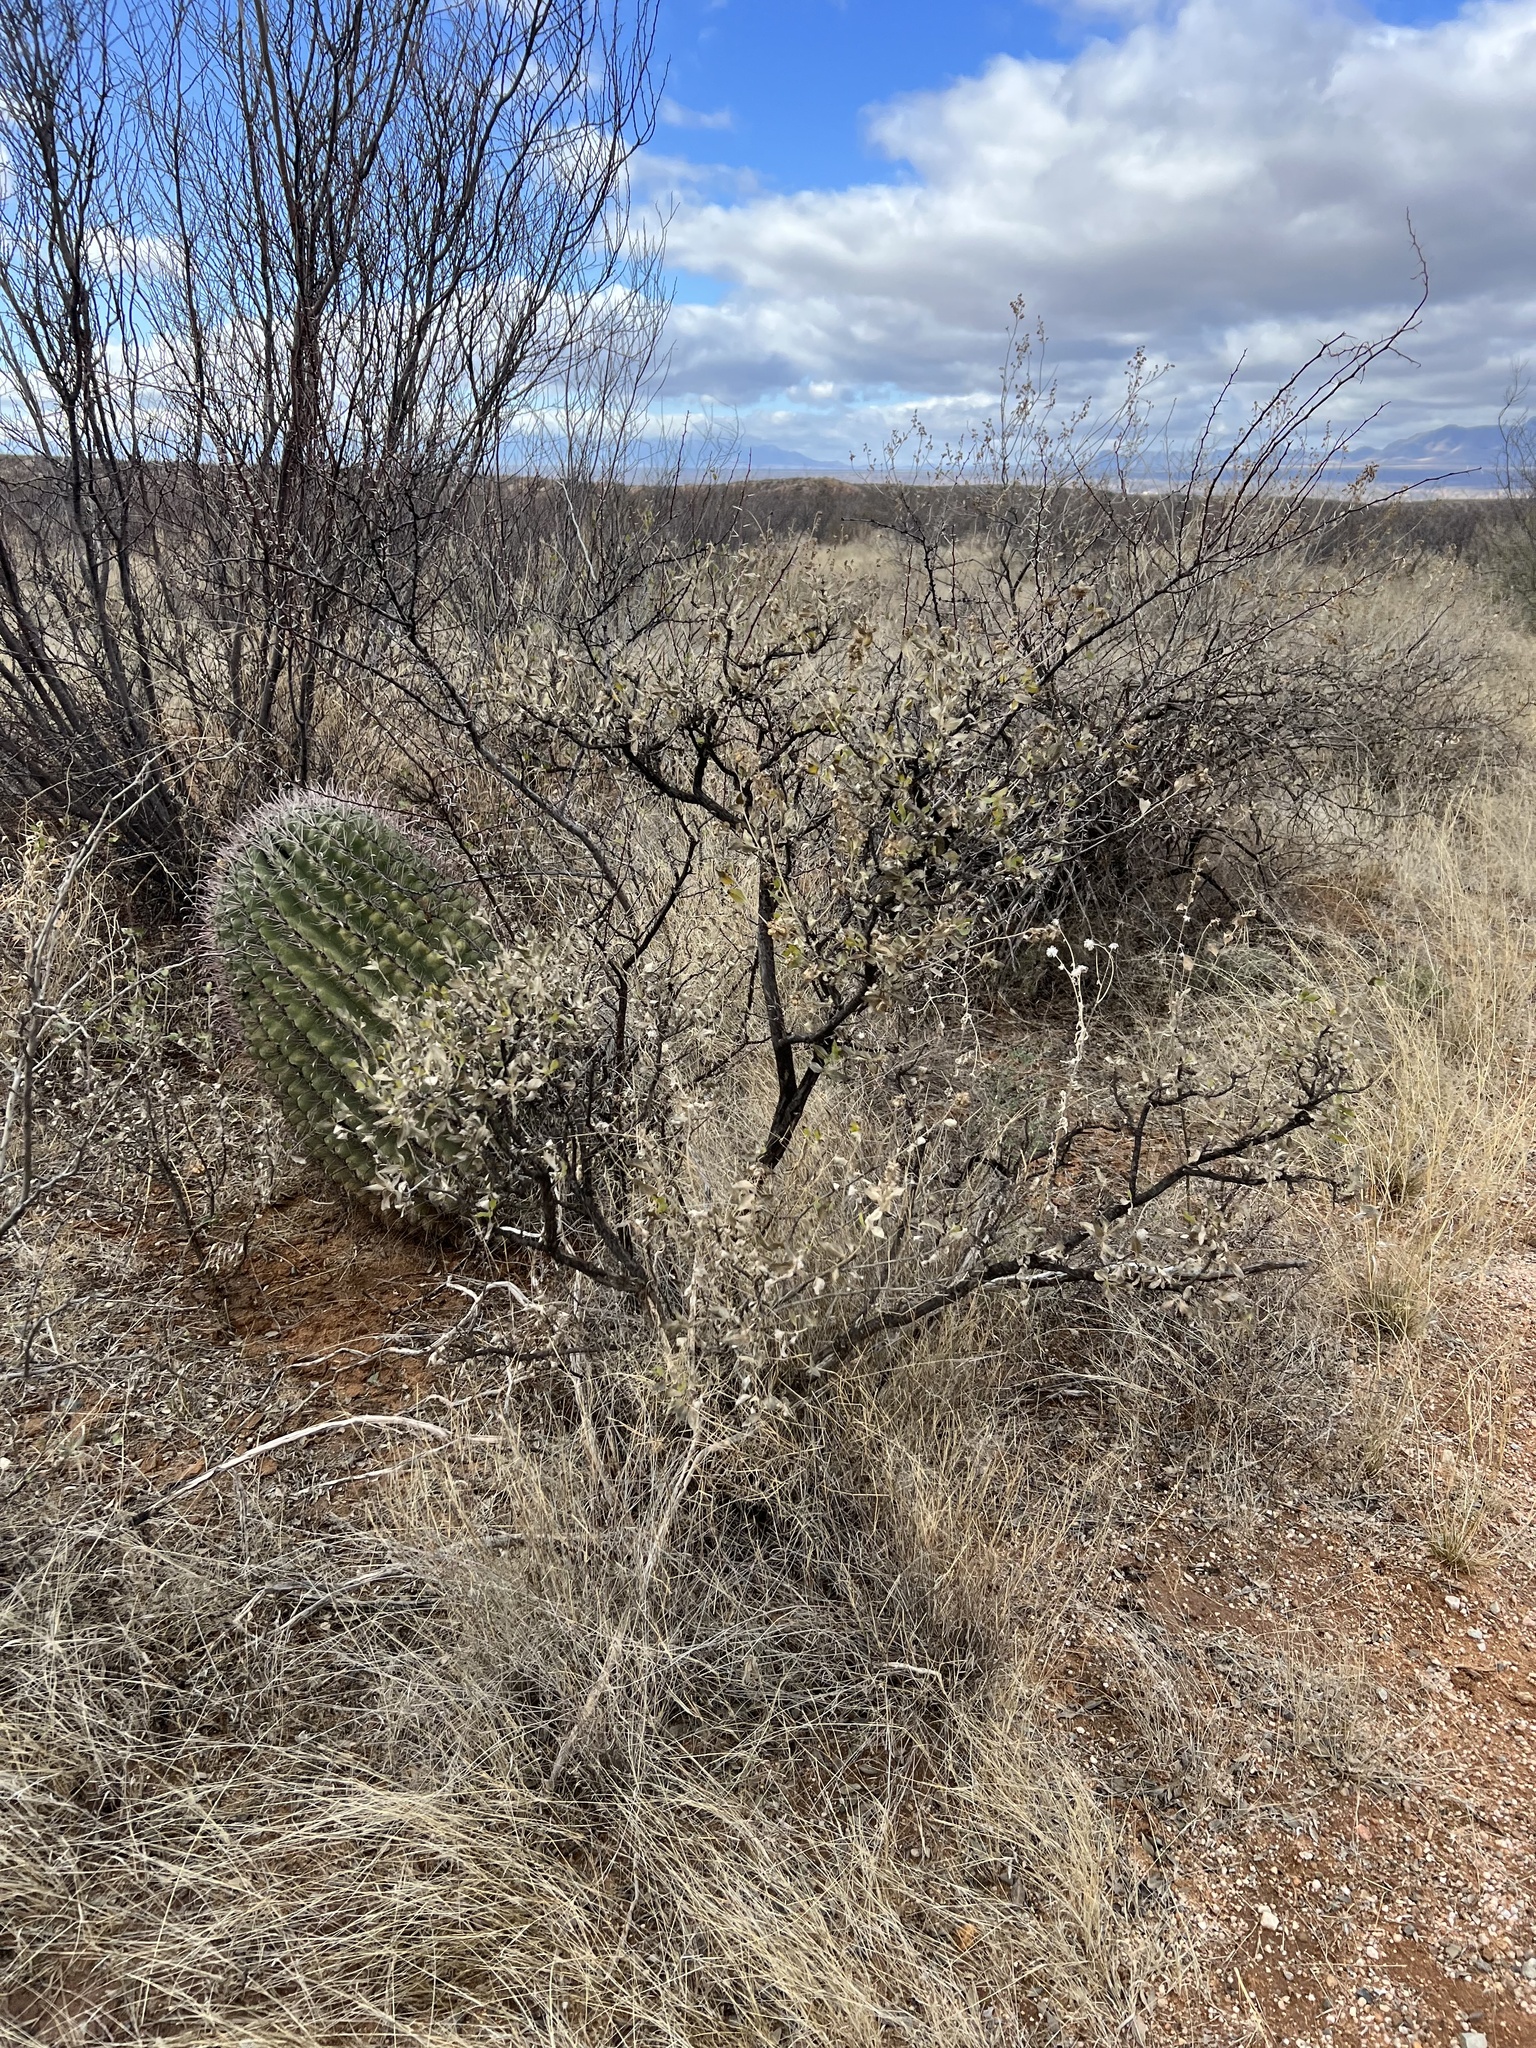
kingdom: Plantae
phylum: Tracheophyta
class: Magnoliopsida
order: Asterales
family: Asteraceae
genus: Flourensia
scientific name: Flourensia cernua
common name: Varnishbush
